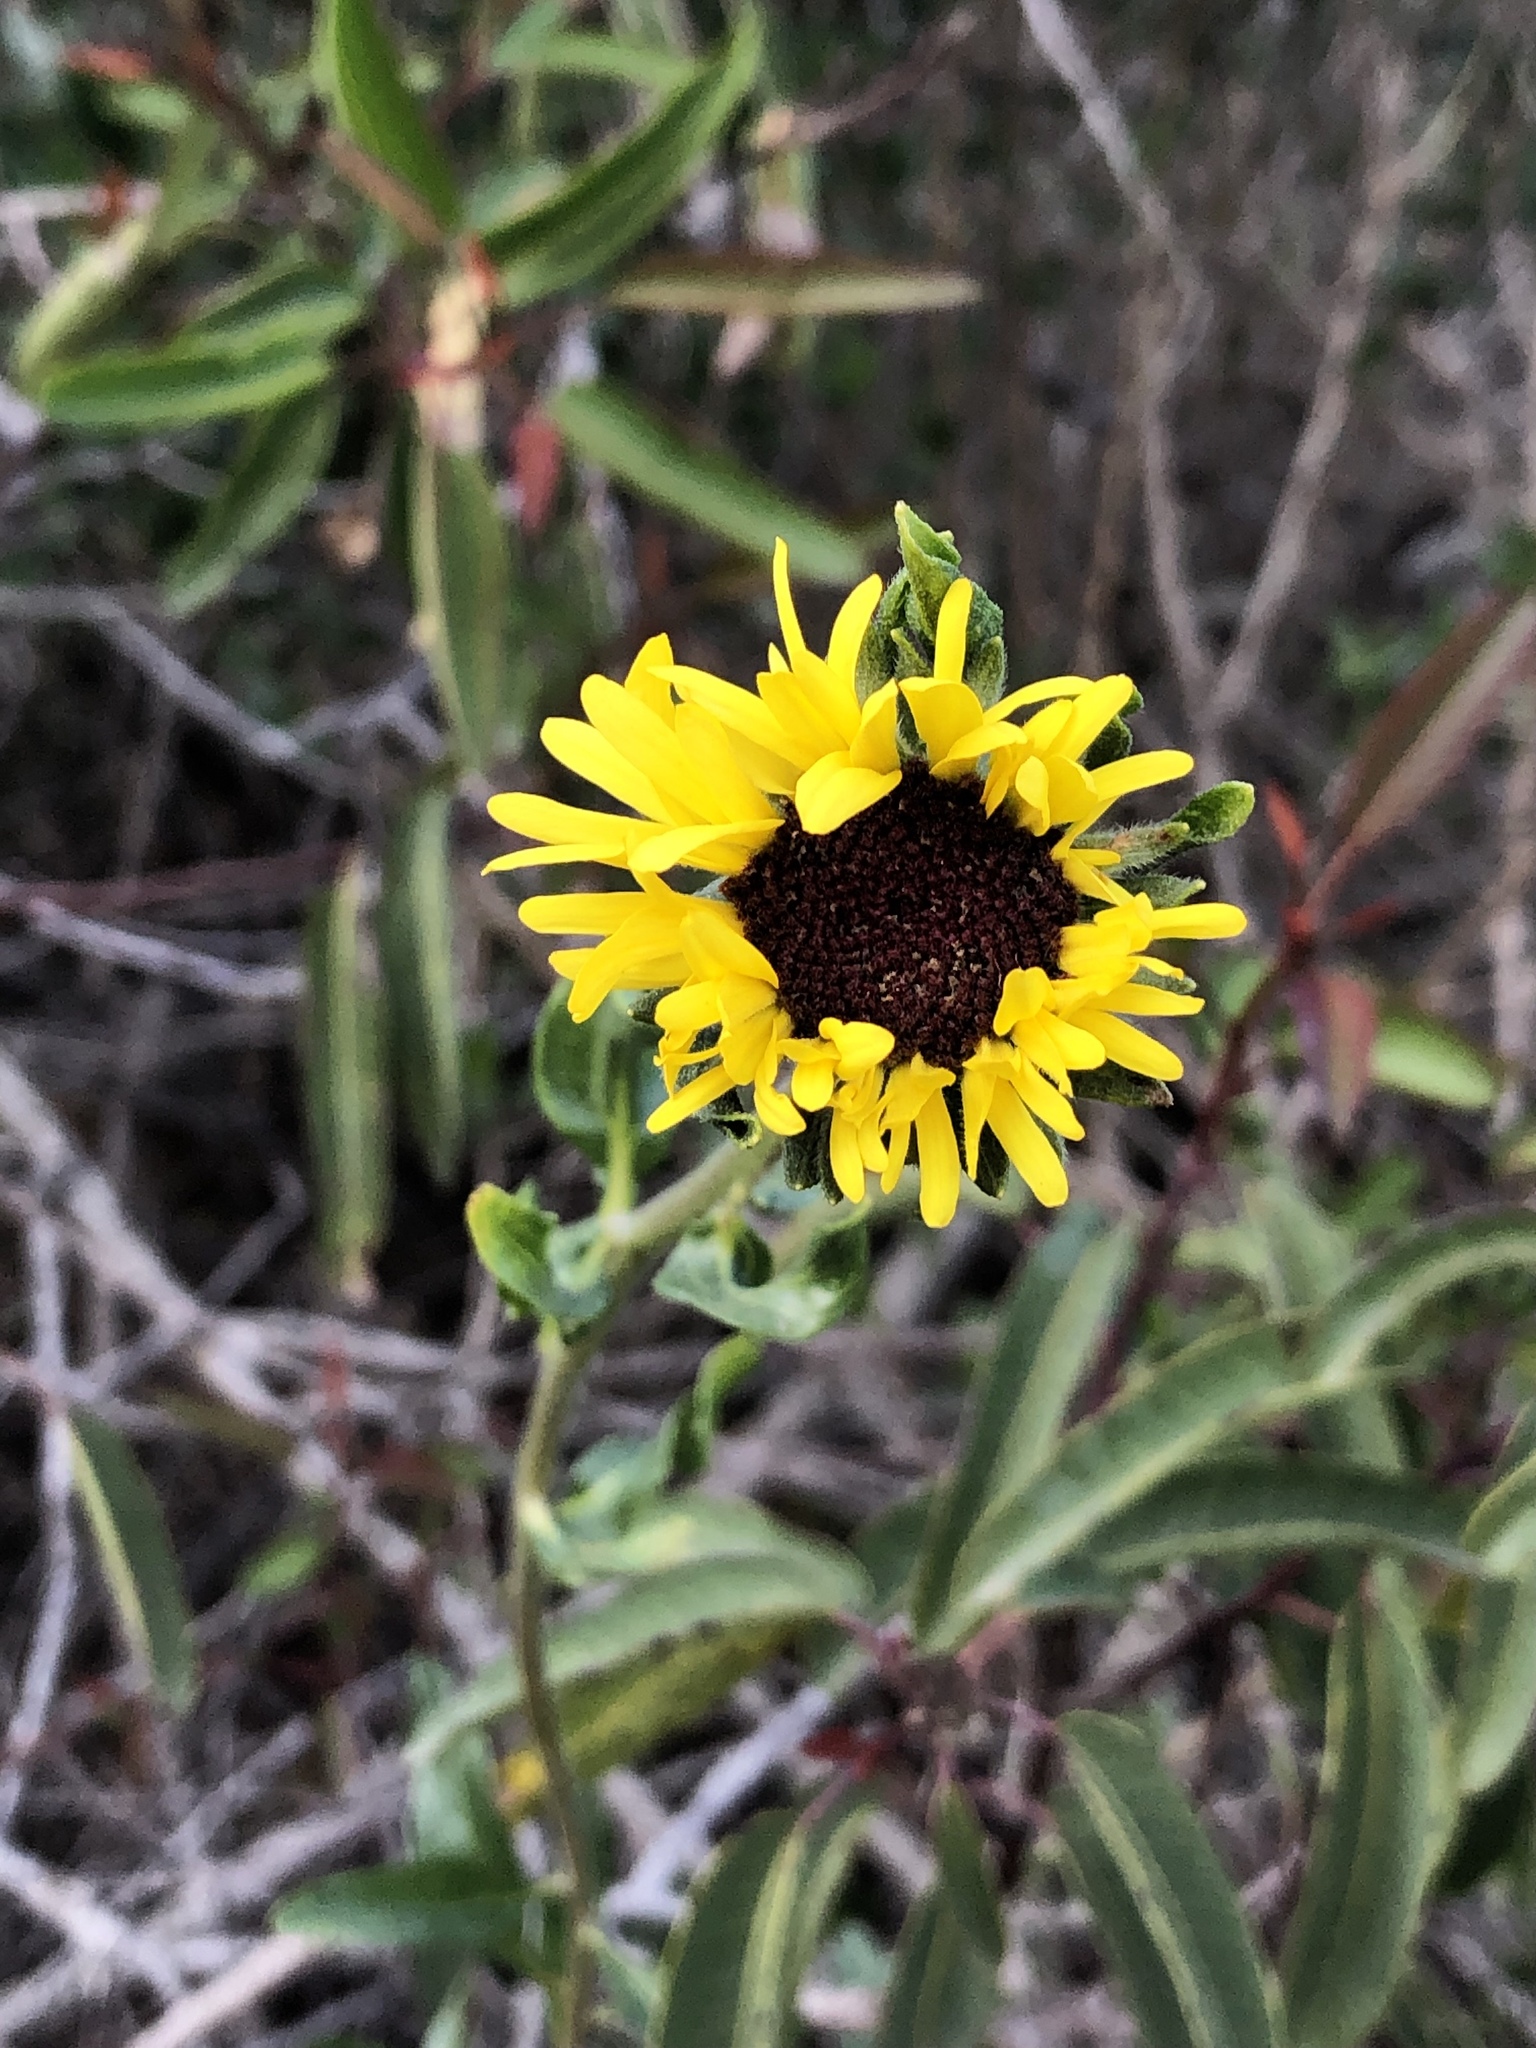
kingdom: Plantae
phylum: Tracheophyta
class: Magnoliopsida
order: Asterales
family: Asteraceae
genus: Encelia
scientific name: Encelia californica
